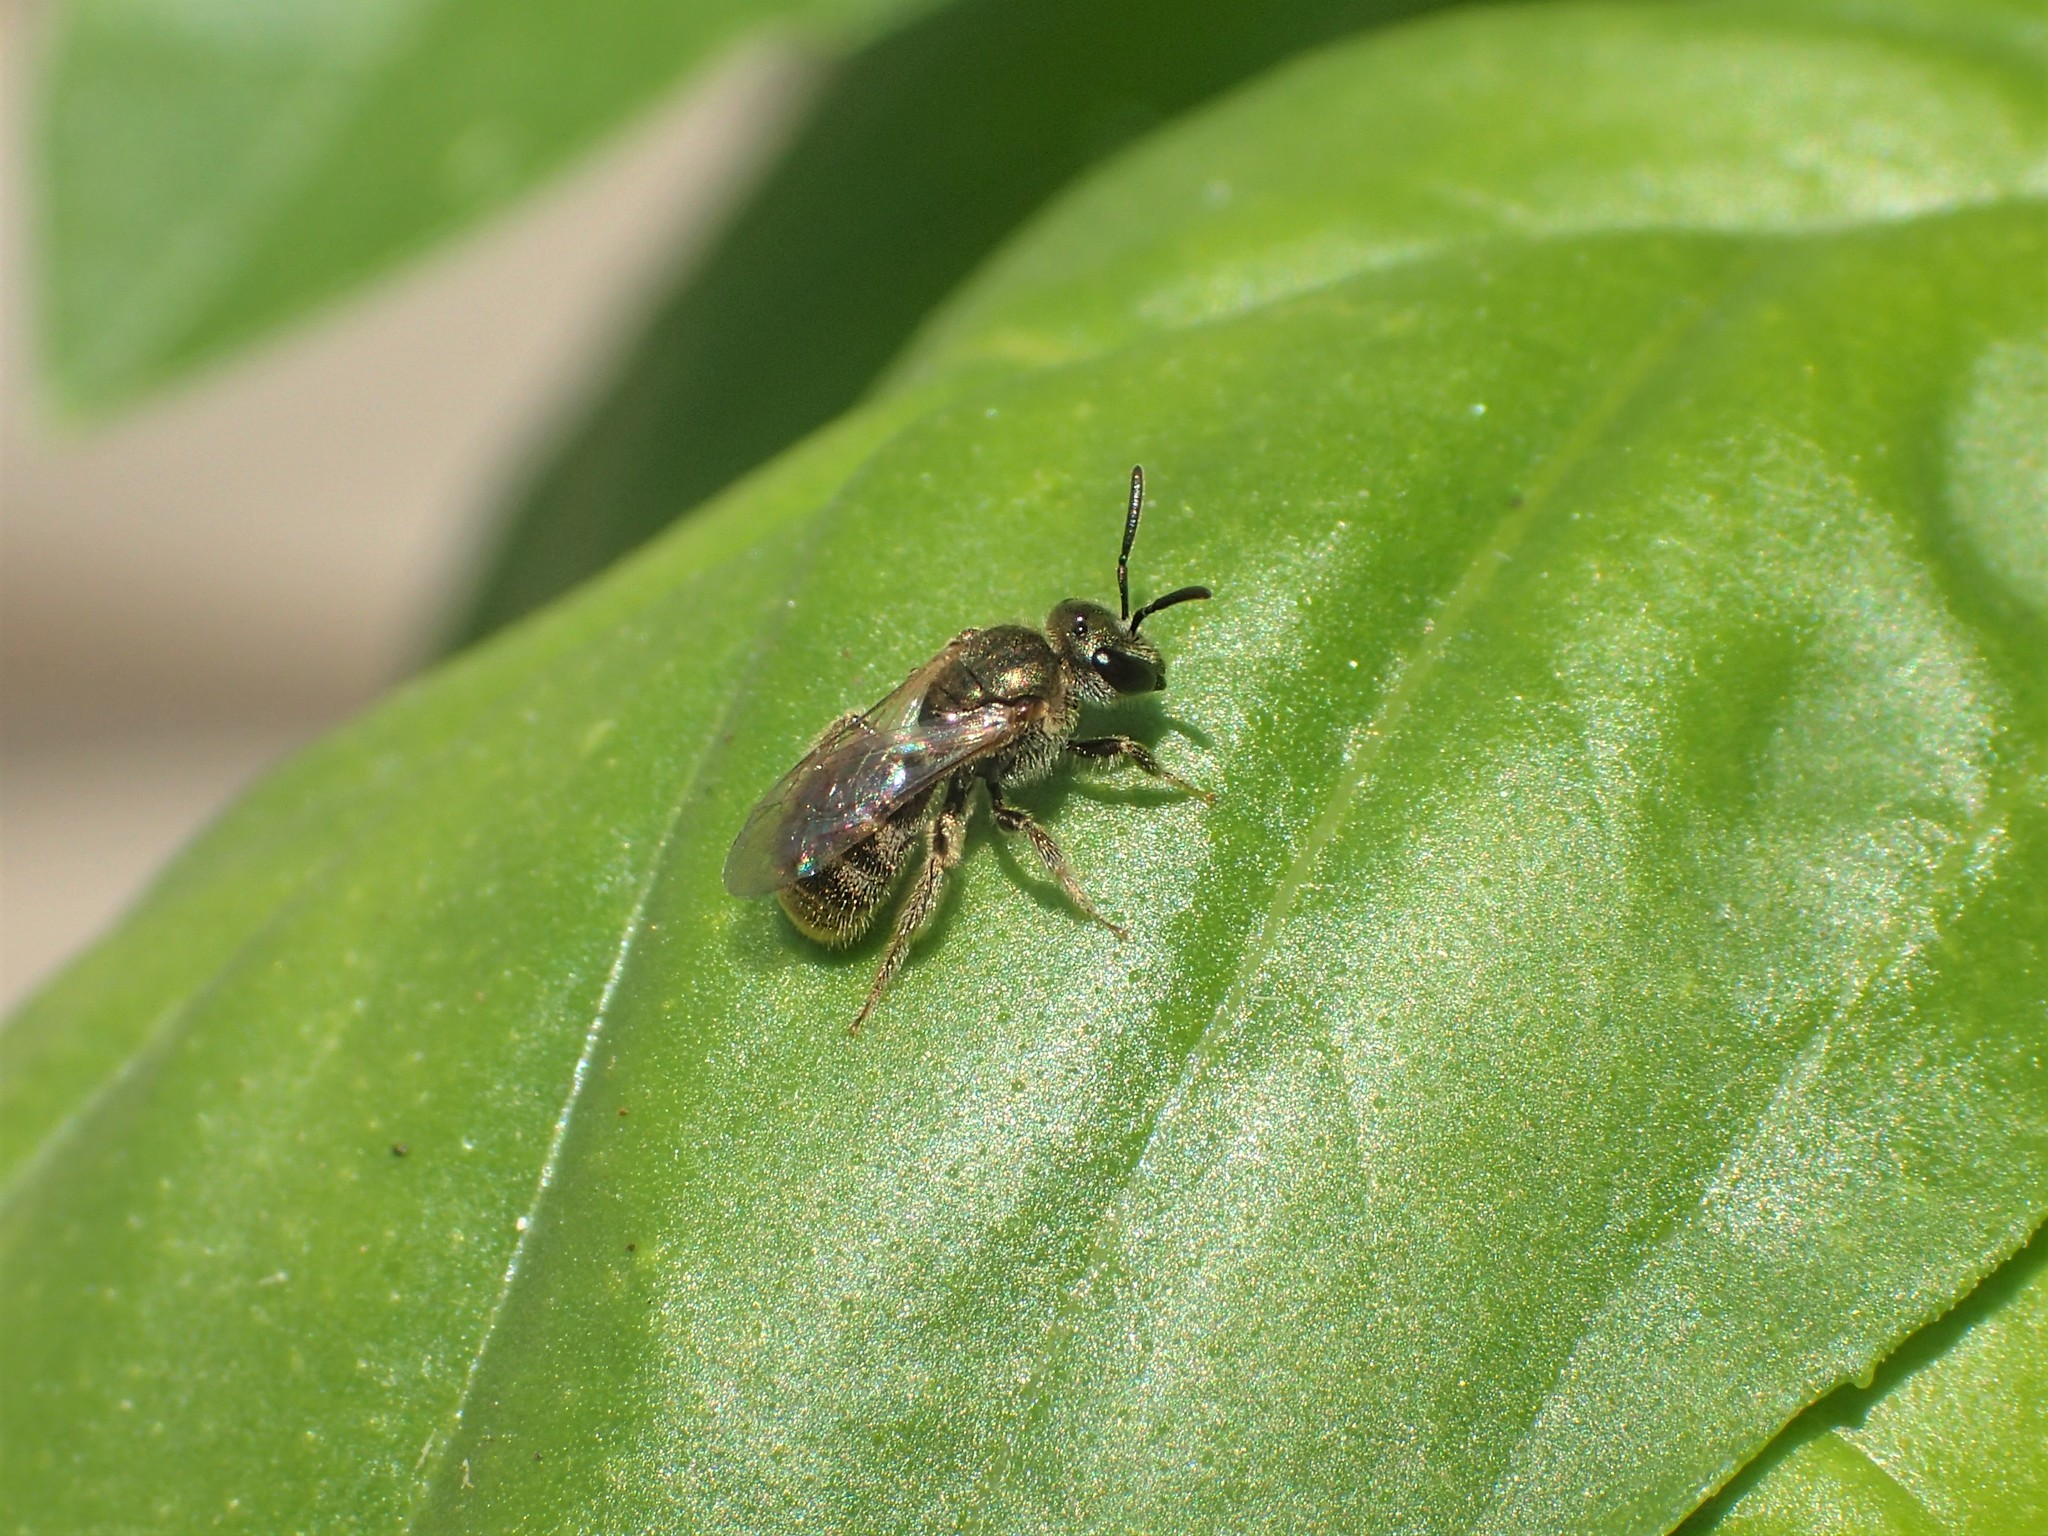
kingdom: Animalia
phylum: Arthropoda
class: Insecta
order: Hymenoptera
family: Halictidae
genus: Dialictus
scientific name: Dialictus
